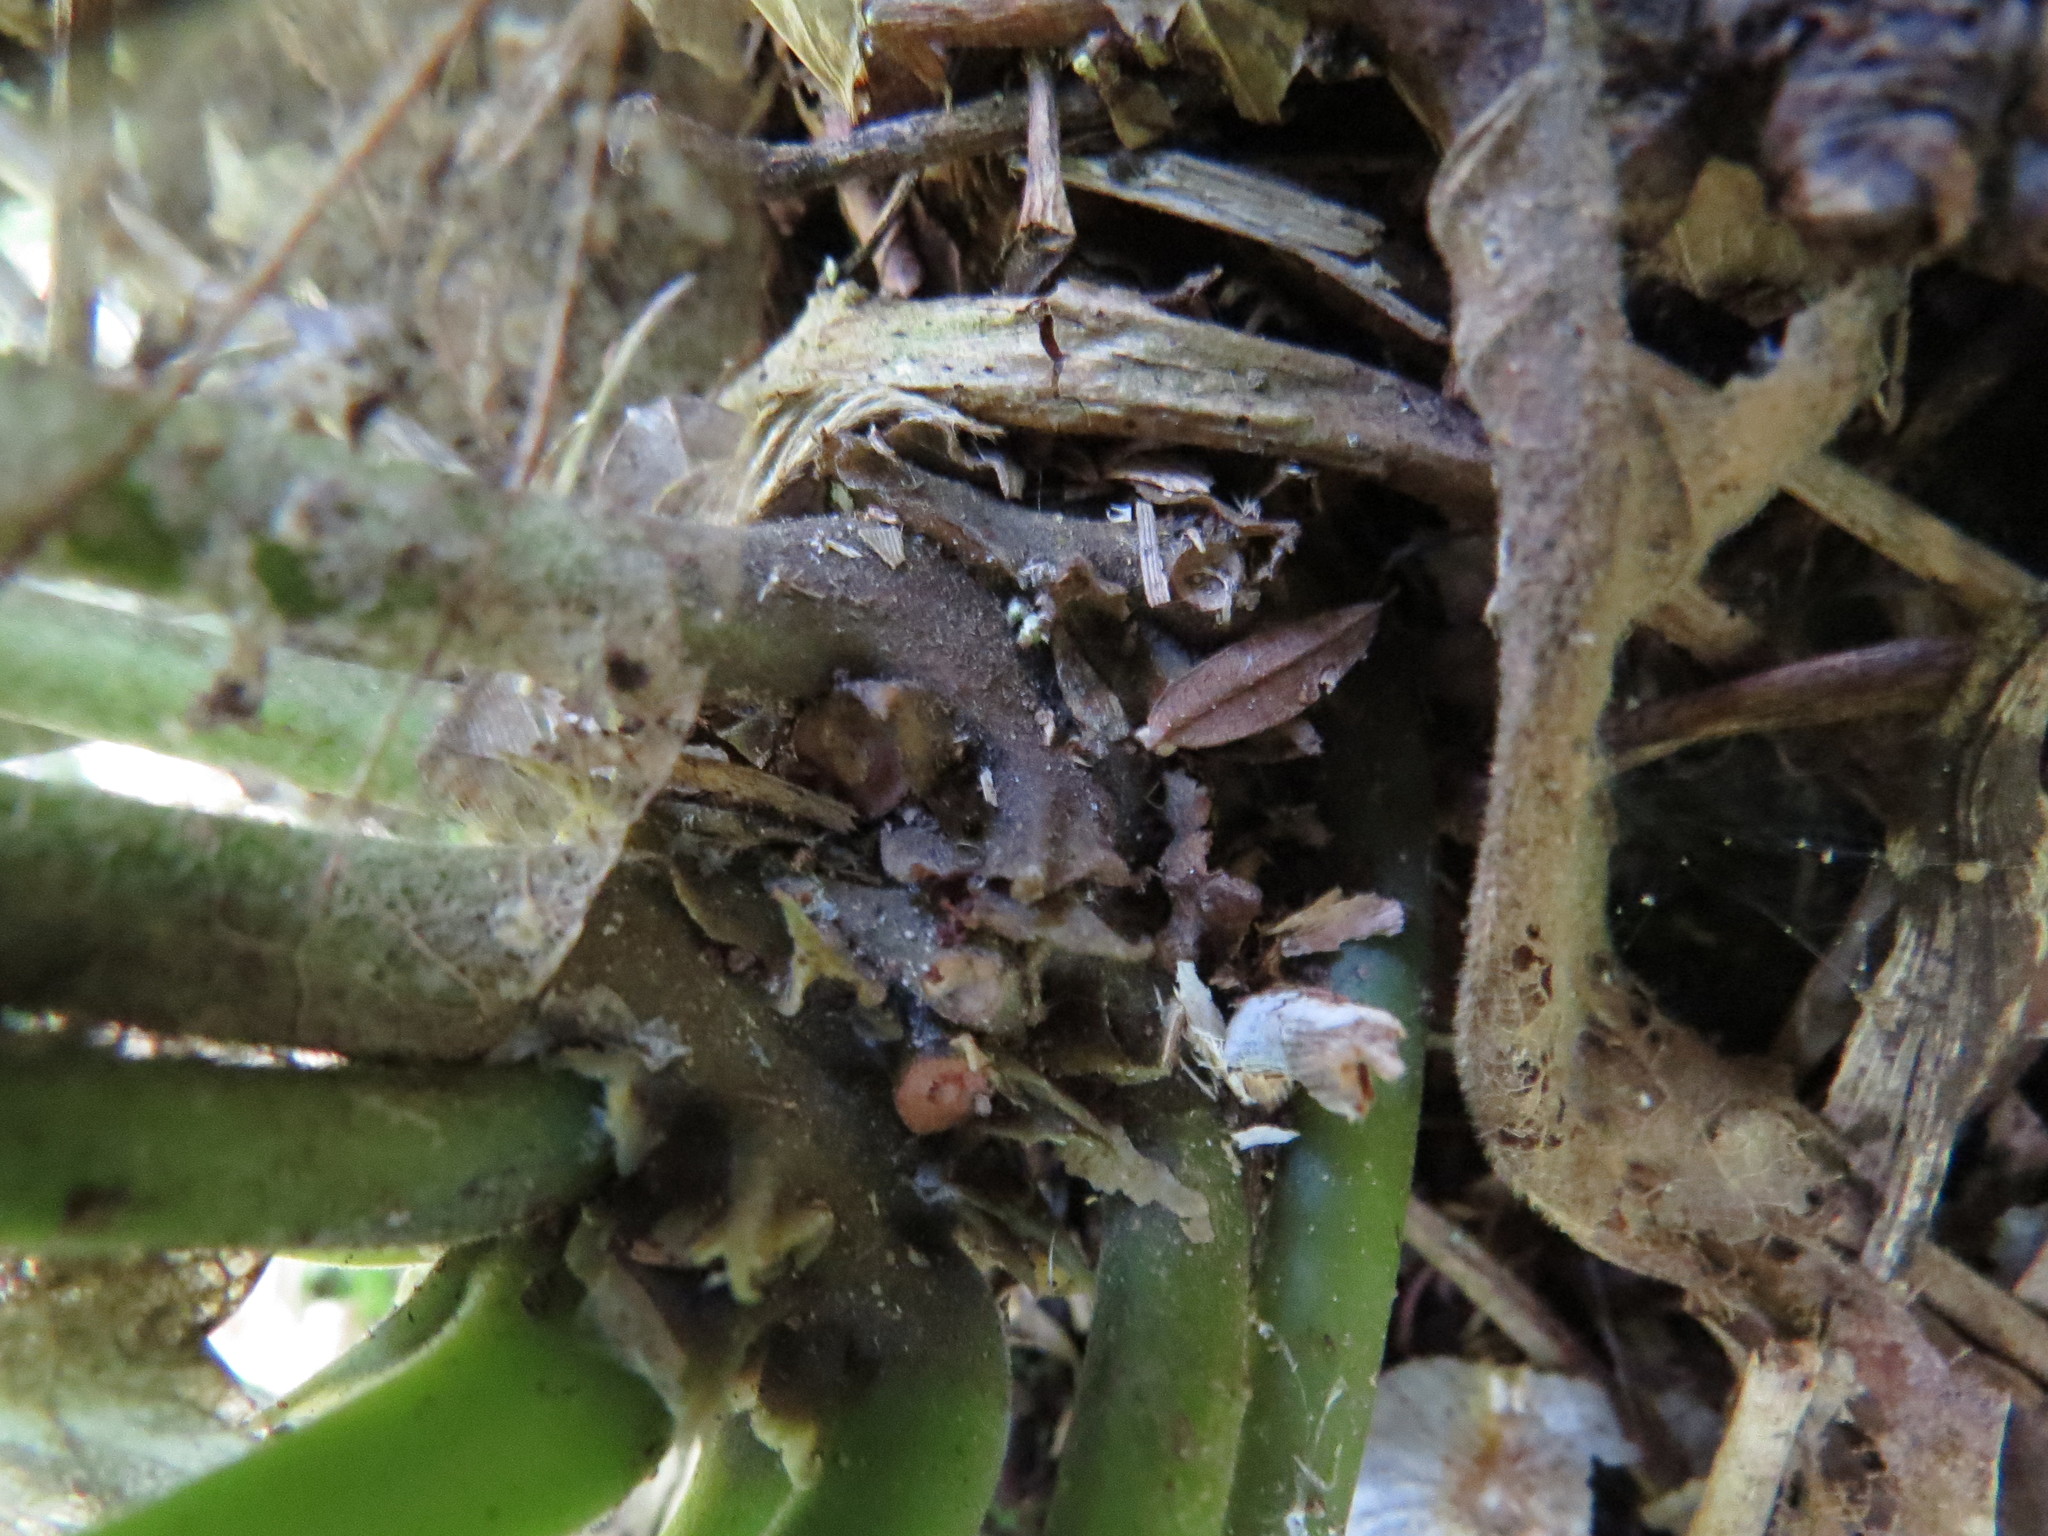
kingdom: Plantae
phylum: Tracheophyta
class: Magnoliopsida
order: Rosales
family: Moraceae
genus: Dorstenia
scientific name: Dorstenia arifolia
